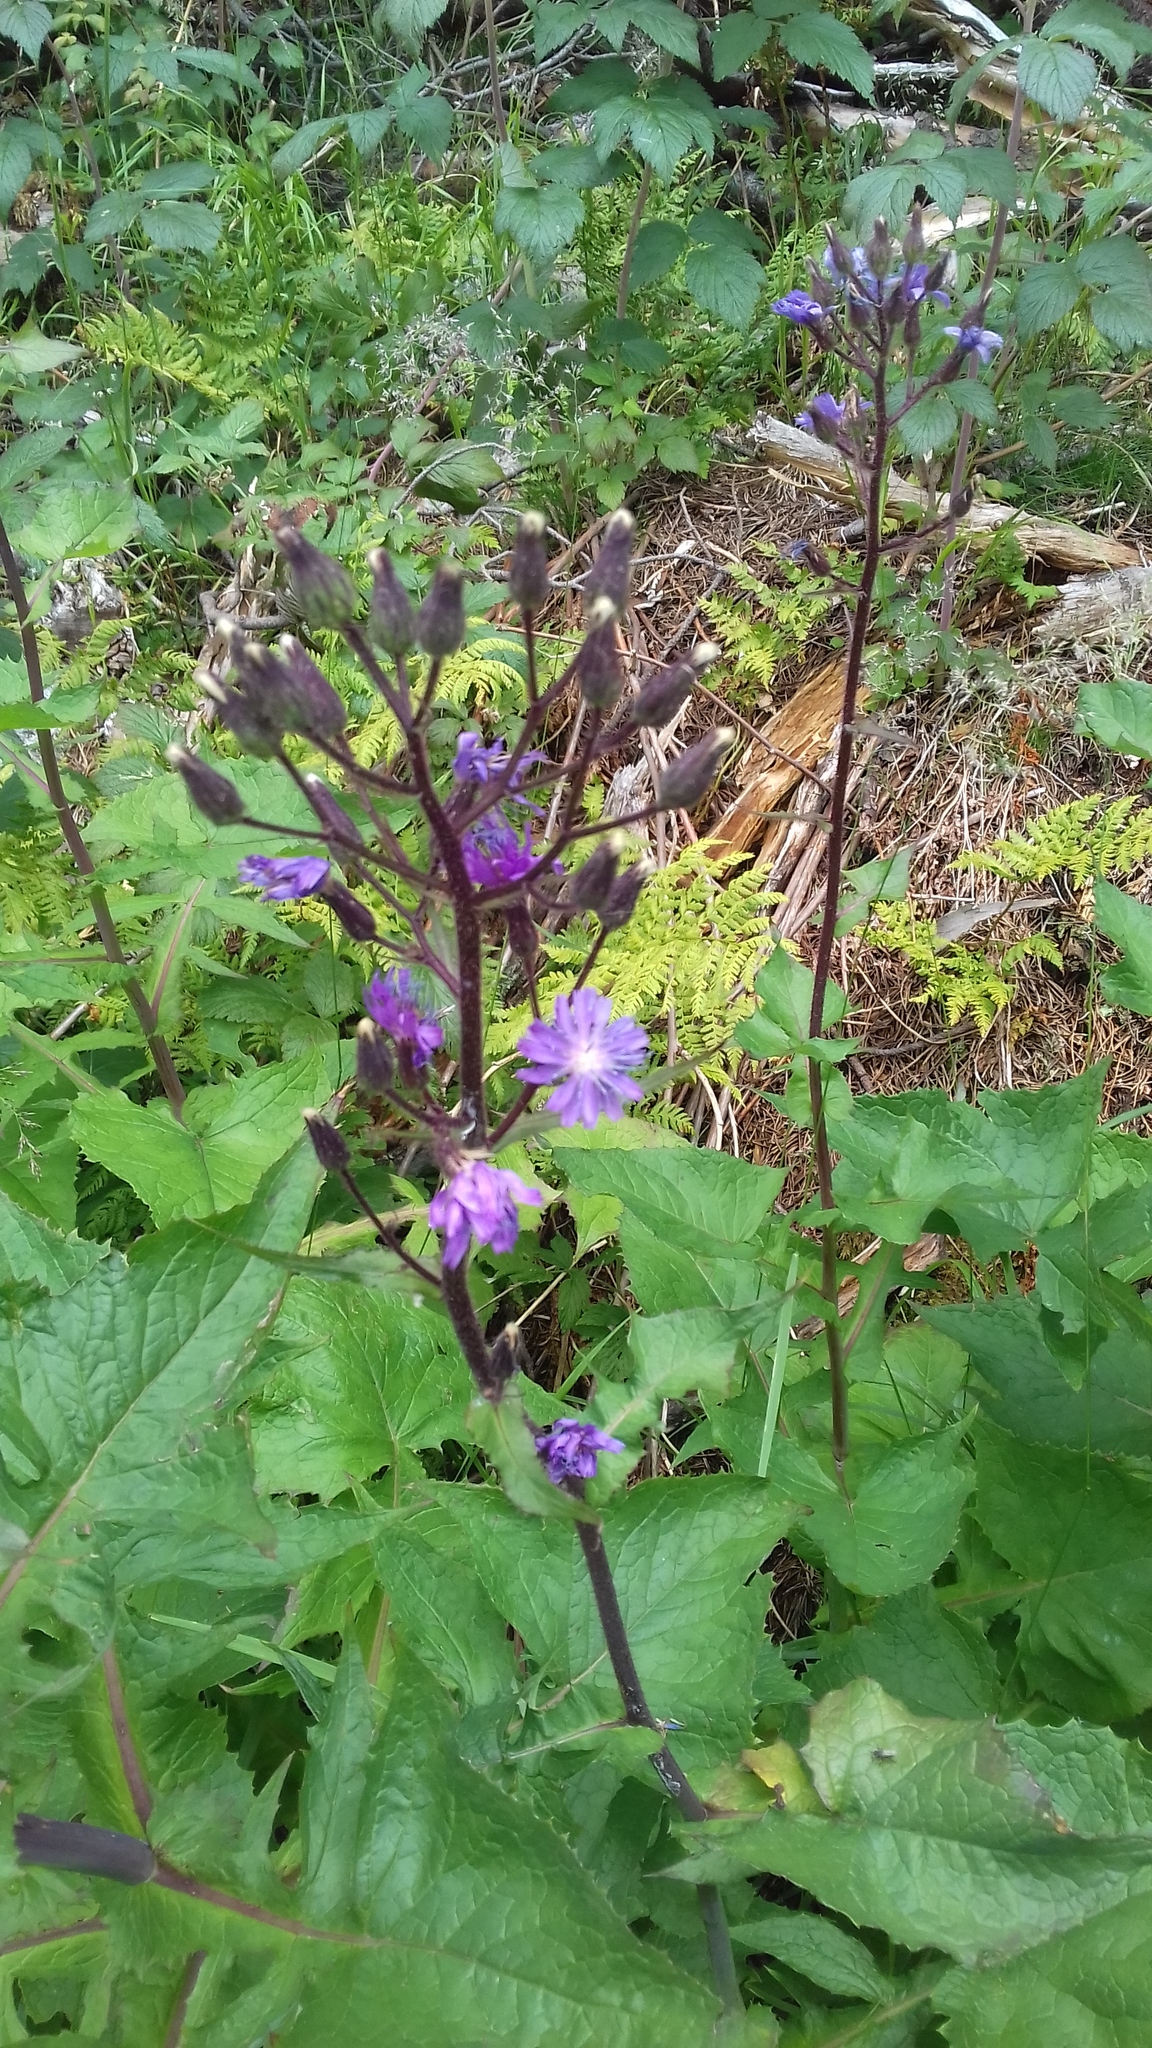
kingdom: Plantae
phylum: Tracheophyta
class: Magnoliopsida
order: Asterales
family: Asteraceae
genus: Cicerbita
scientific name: Cicerbita alpina
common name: Alpine blue-sow-thistle
